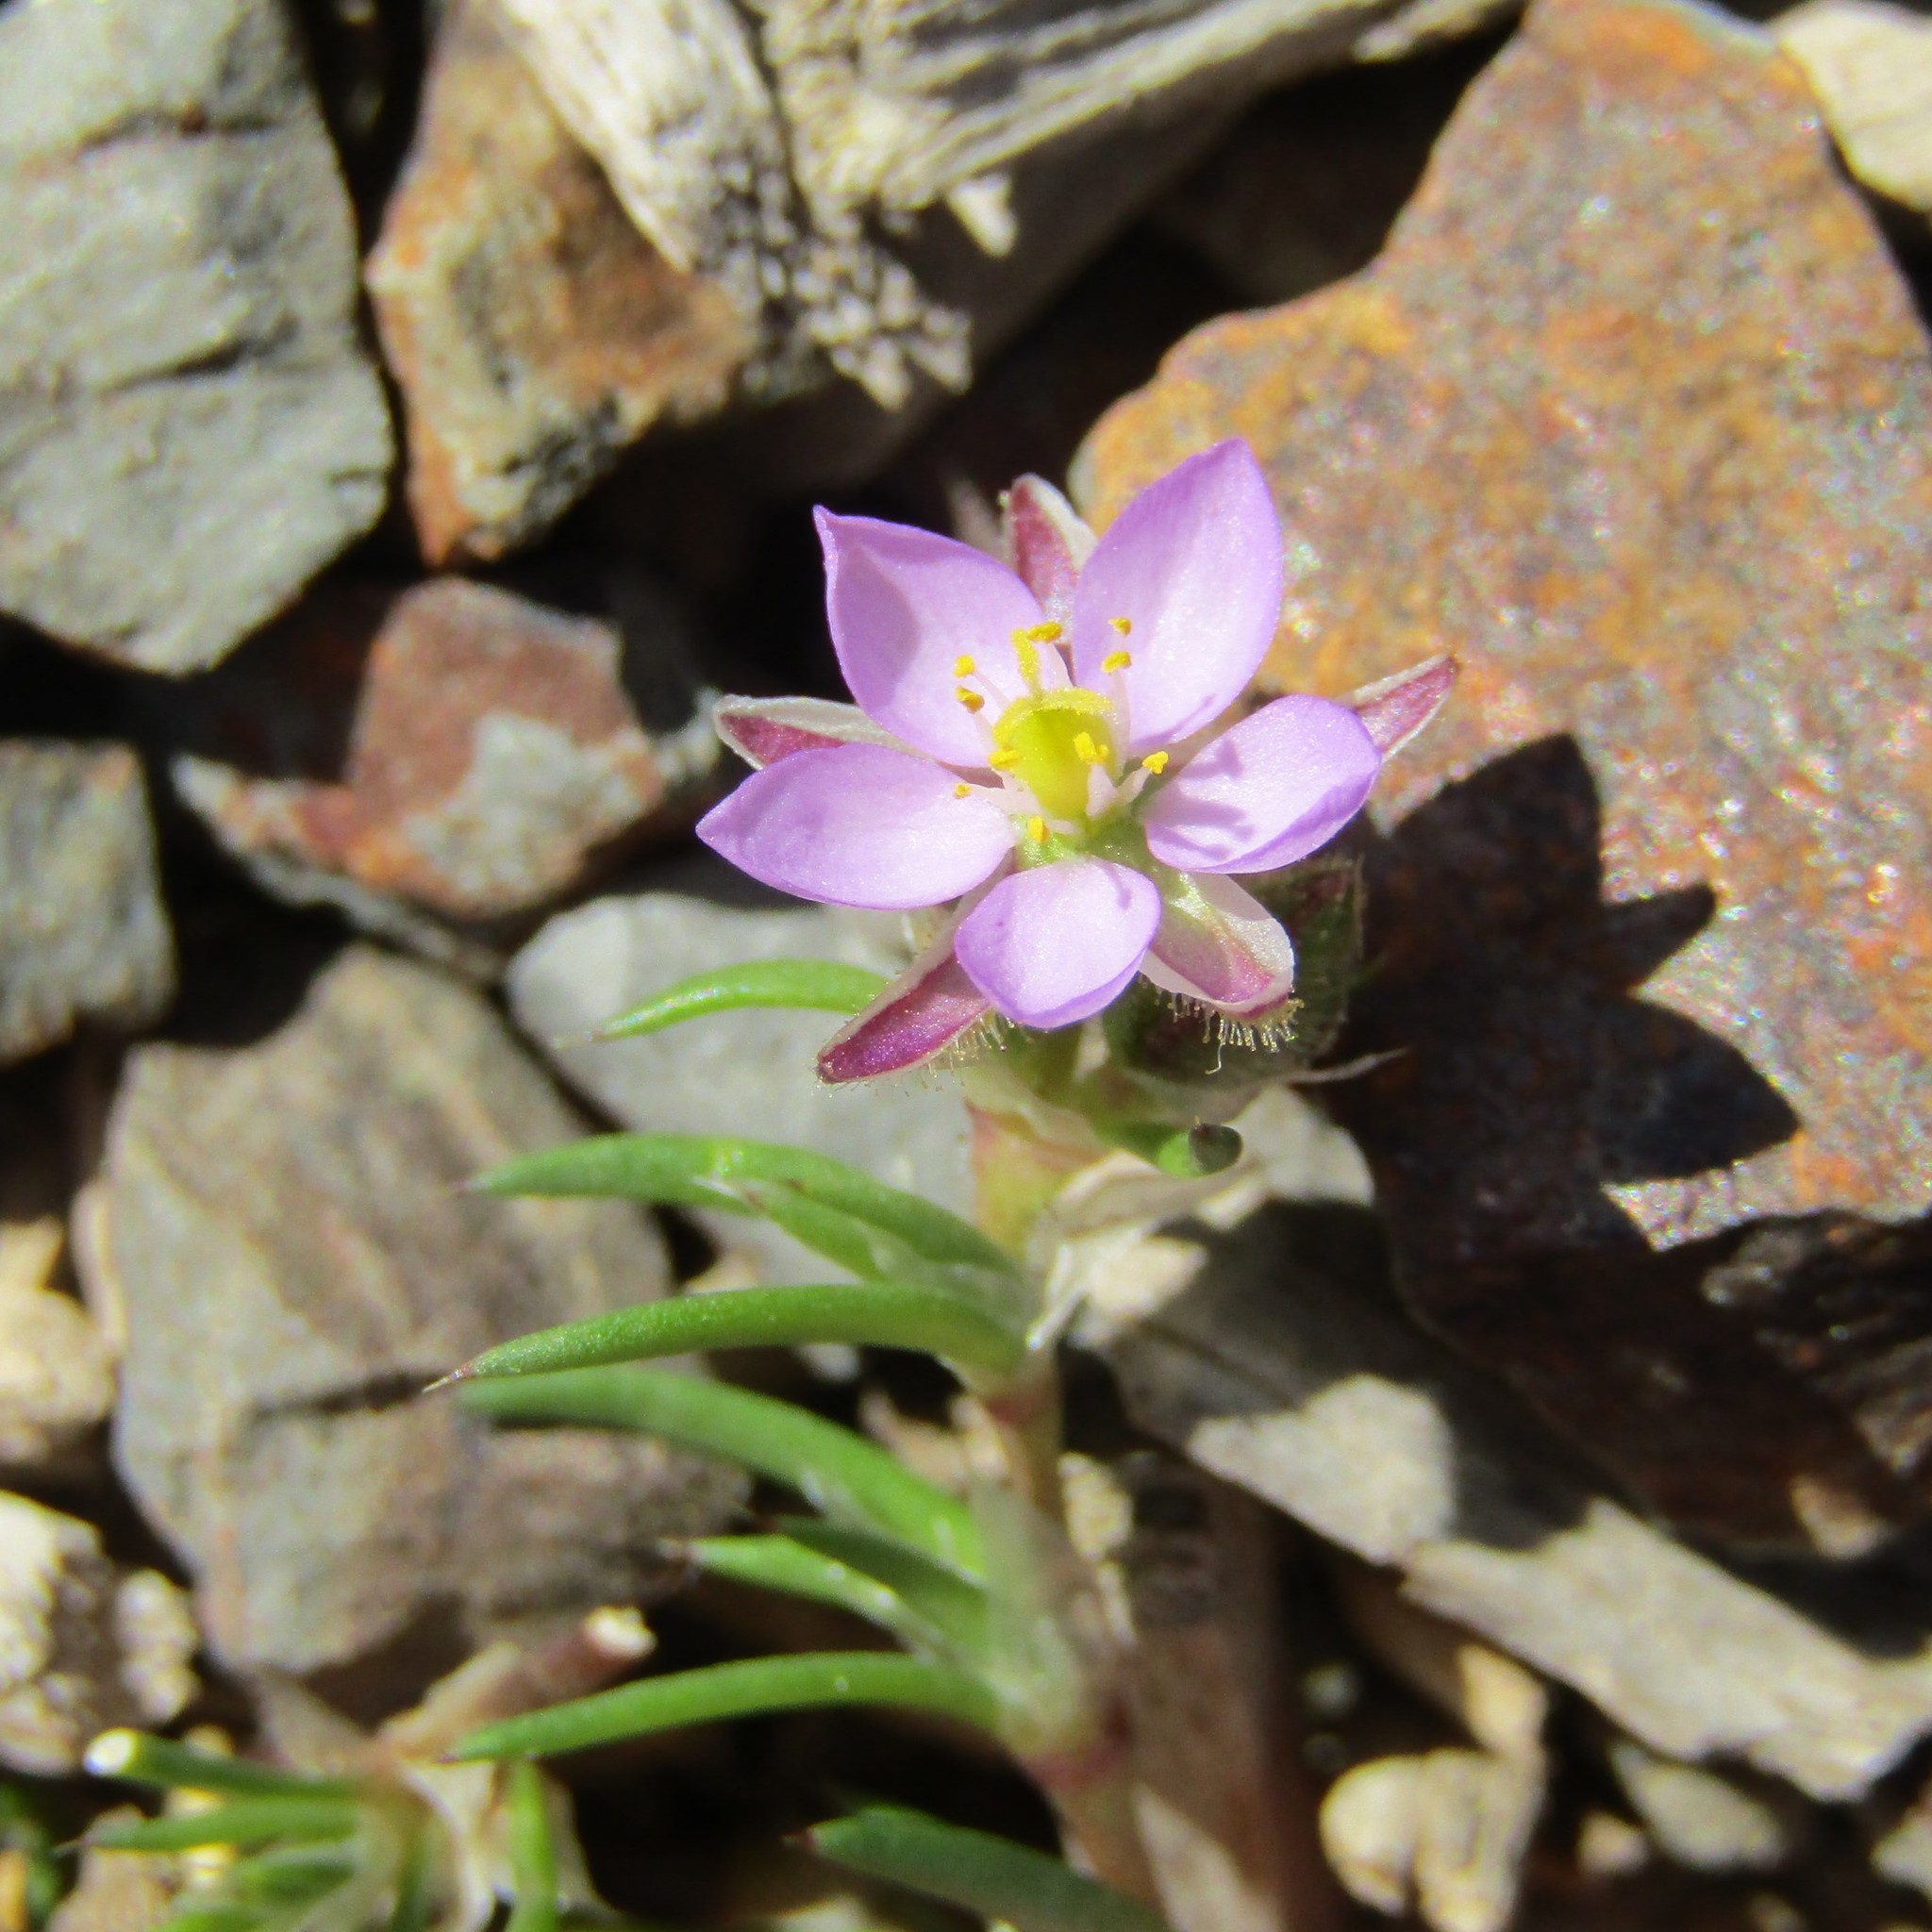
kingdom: Plantae
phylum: Tracheophyta
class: Magnoliopsida
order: Caryophyllales
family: Caryophyllaceae
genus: Spergularia
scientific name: Spergularia rubra
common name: Red sand-spurrey
